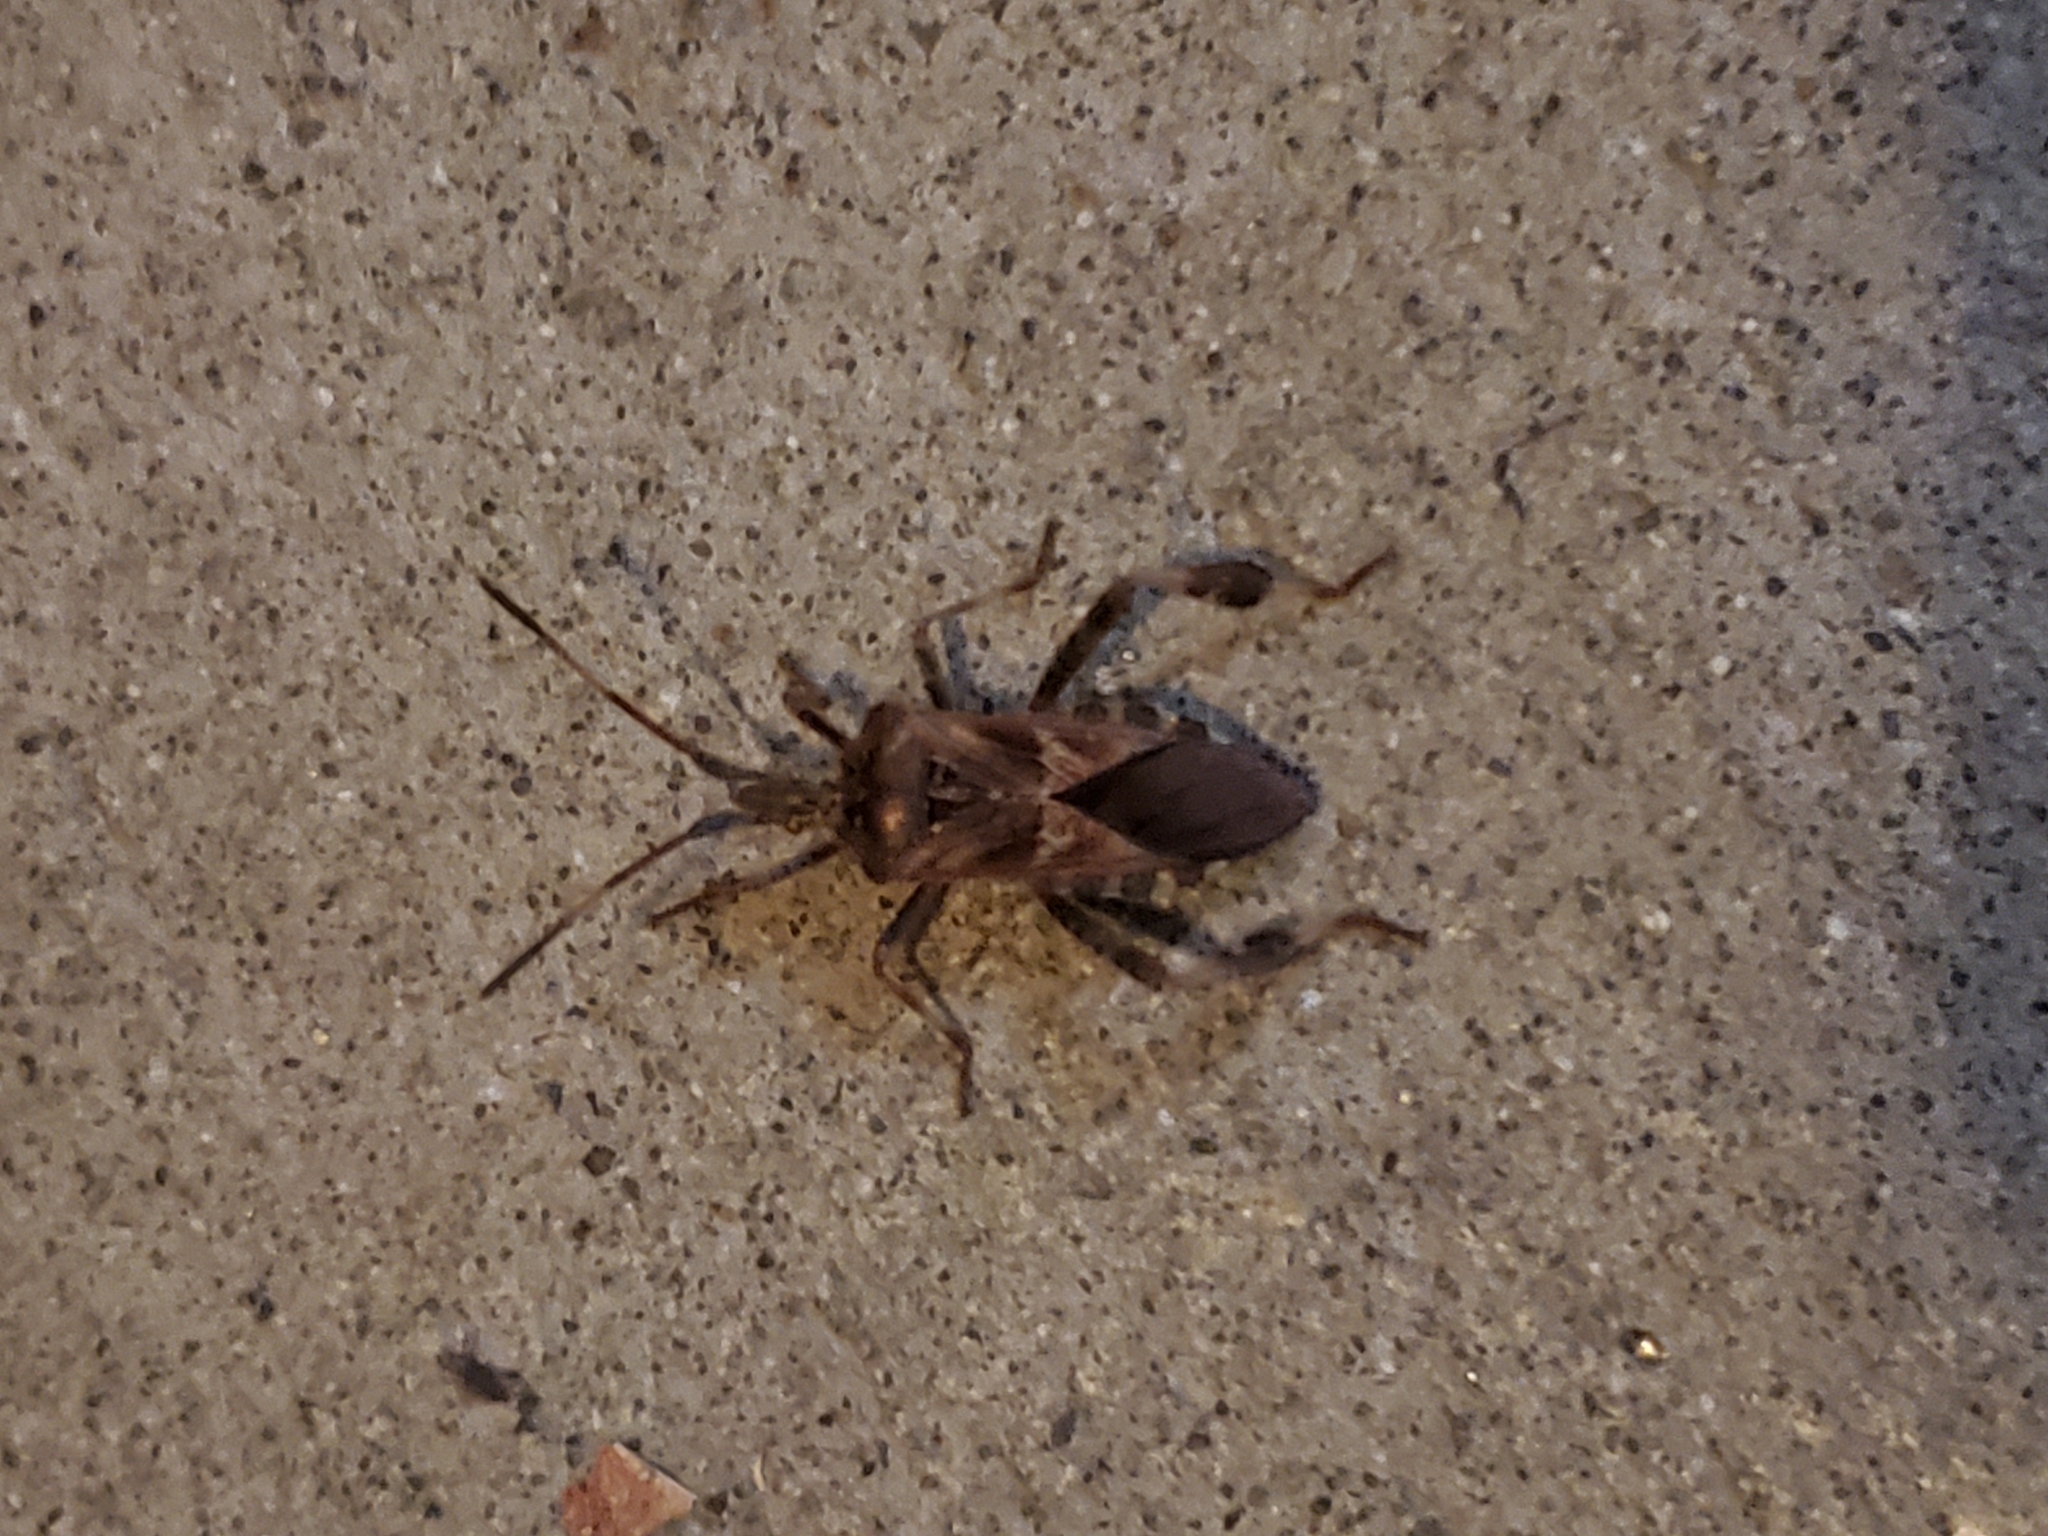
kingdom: Animalia
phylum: Arthropoda
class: Insecta
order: Hemiptera
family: Coreidae
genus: Leptoglossus
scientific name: Leptoglossus occidentalis
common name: Western conifer-seed bug
